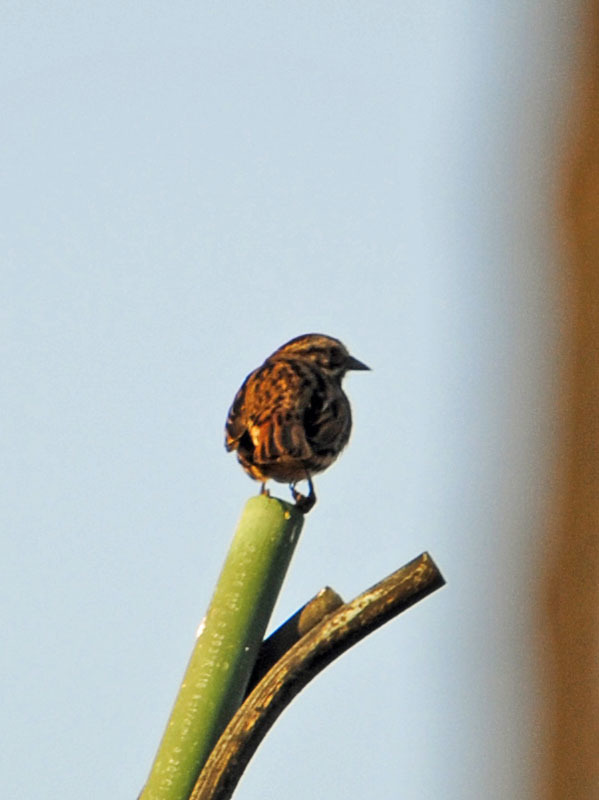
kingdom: Animalia
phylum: Chordata
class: Aves
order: Passeriformes
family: Passerellidae
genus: Melospiza
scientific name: Melospiza melodia
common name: Song sparrow
